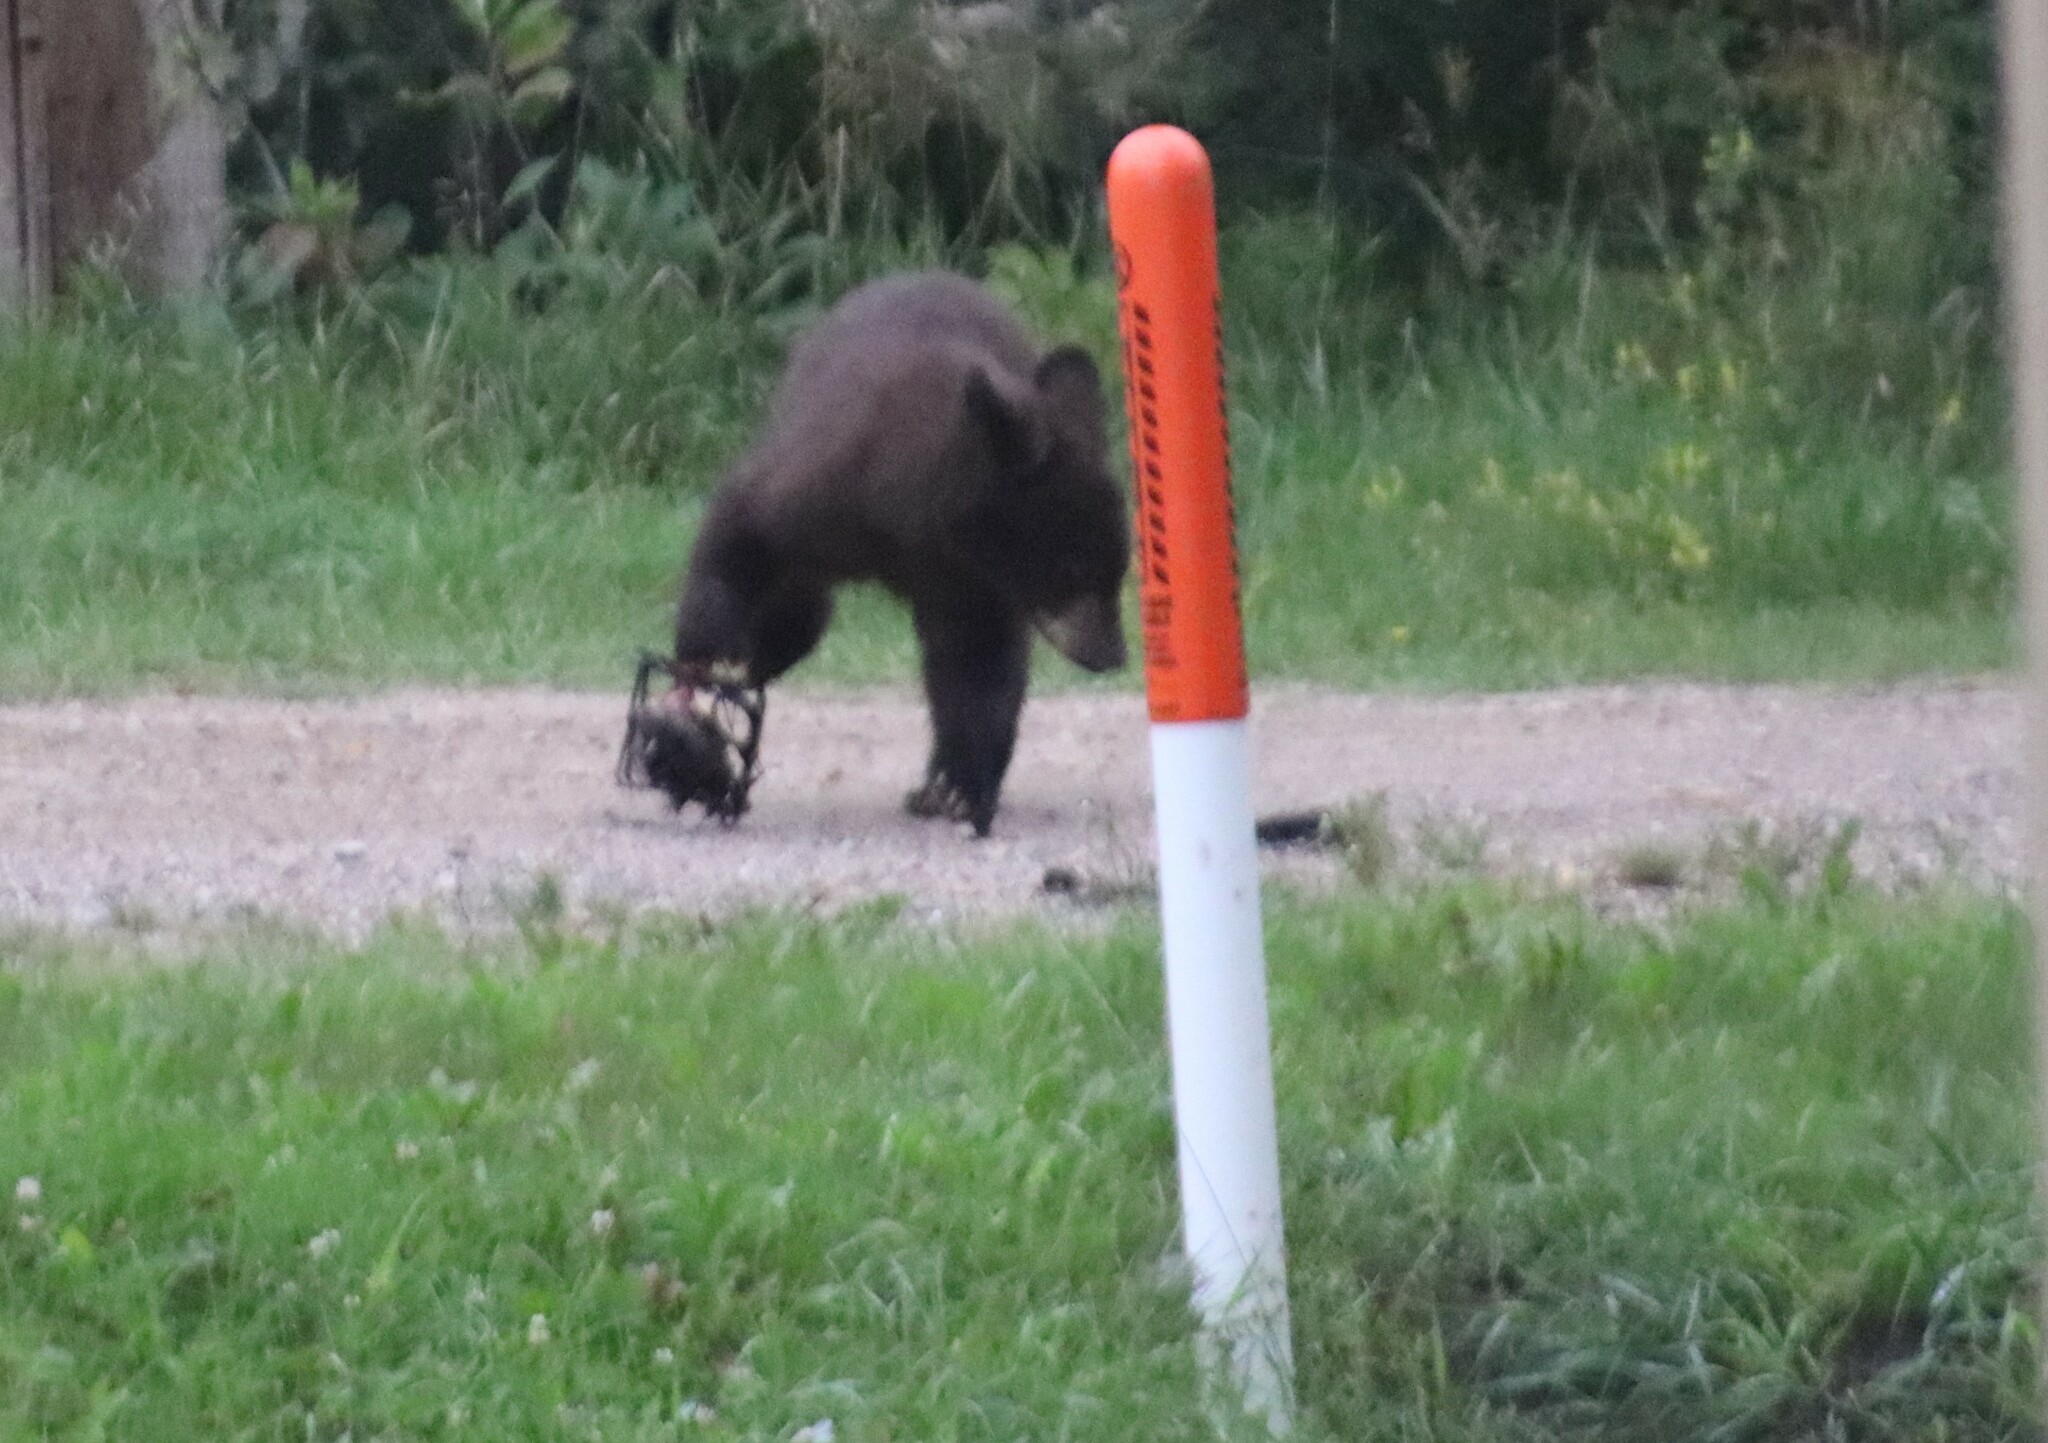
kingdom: Animalia
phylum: Chordata
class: Mammalia
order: Carnivora
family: Ursidae
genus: Ursus
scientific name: Ursus americanus
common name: American black bear
